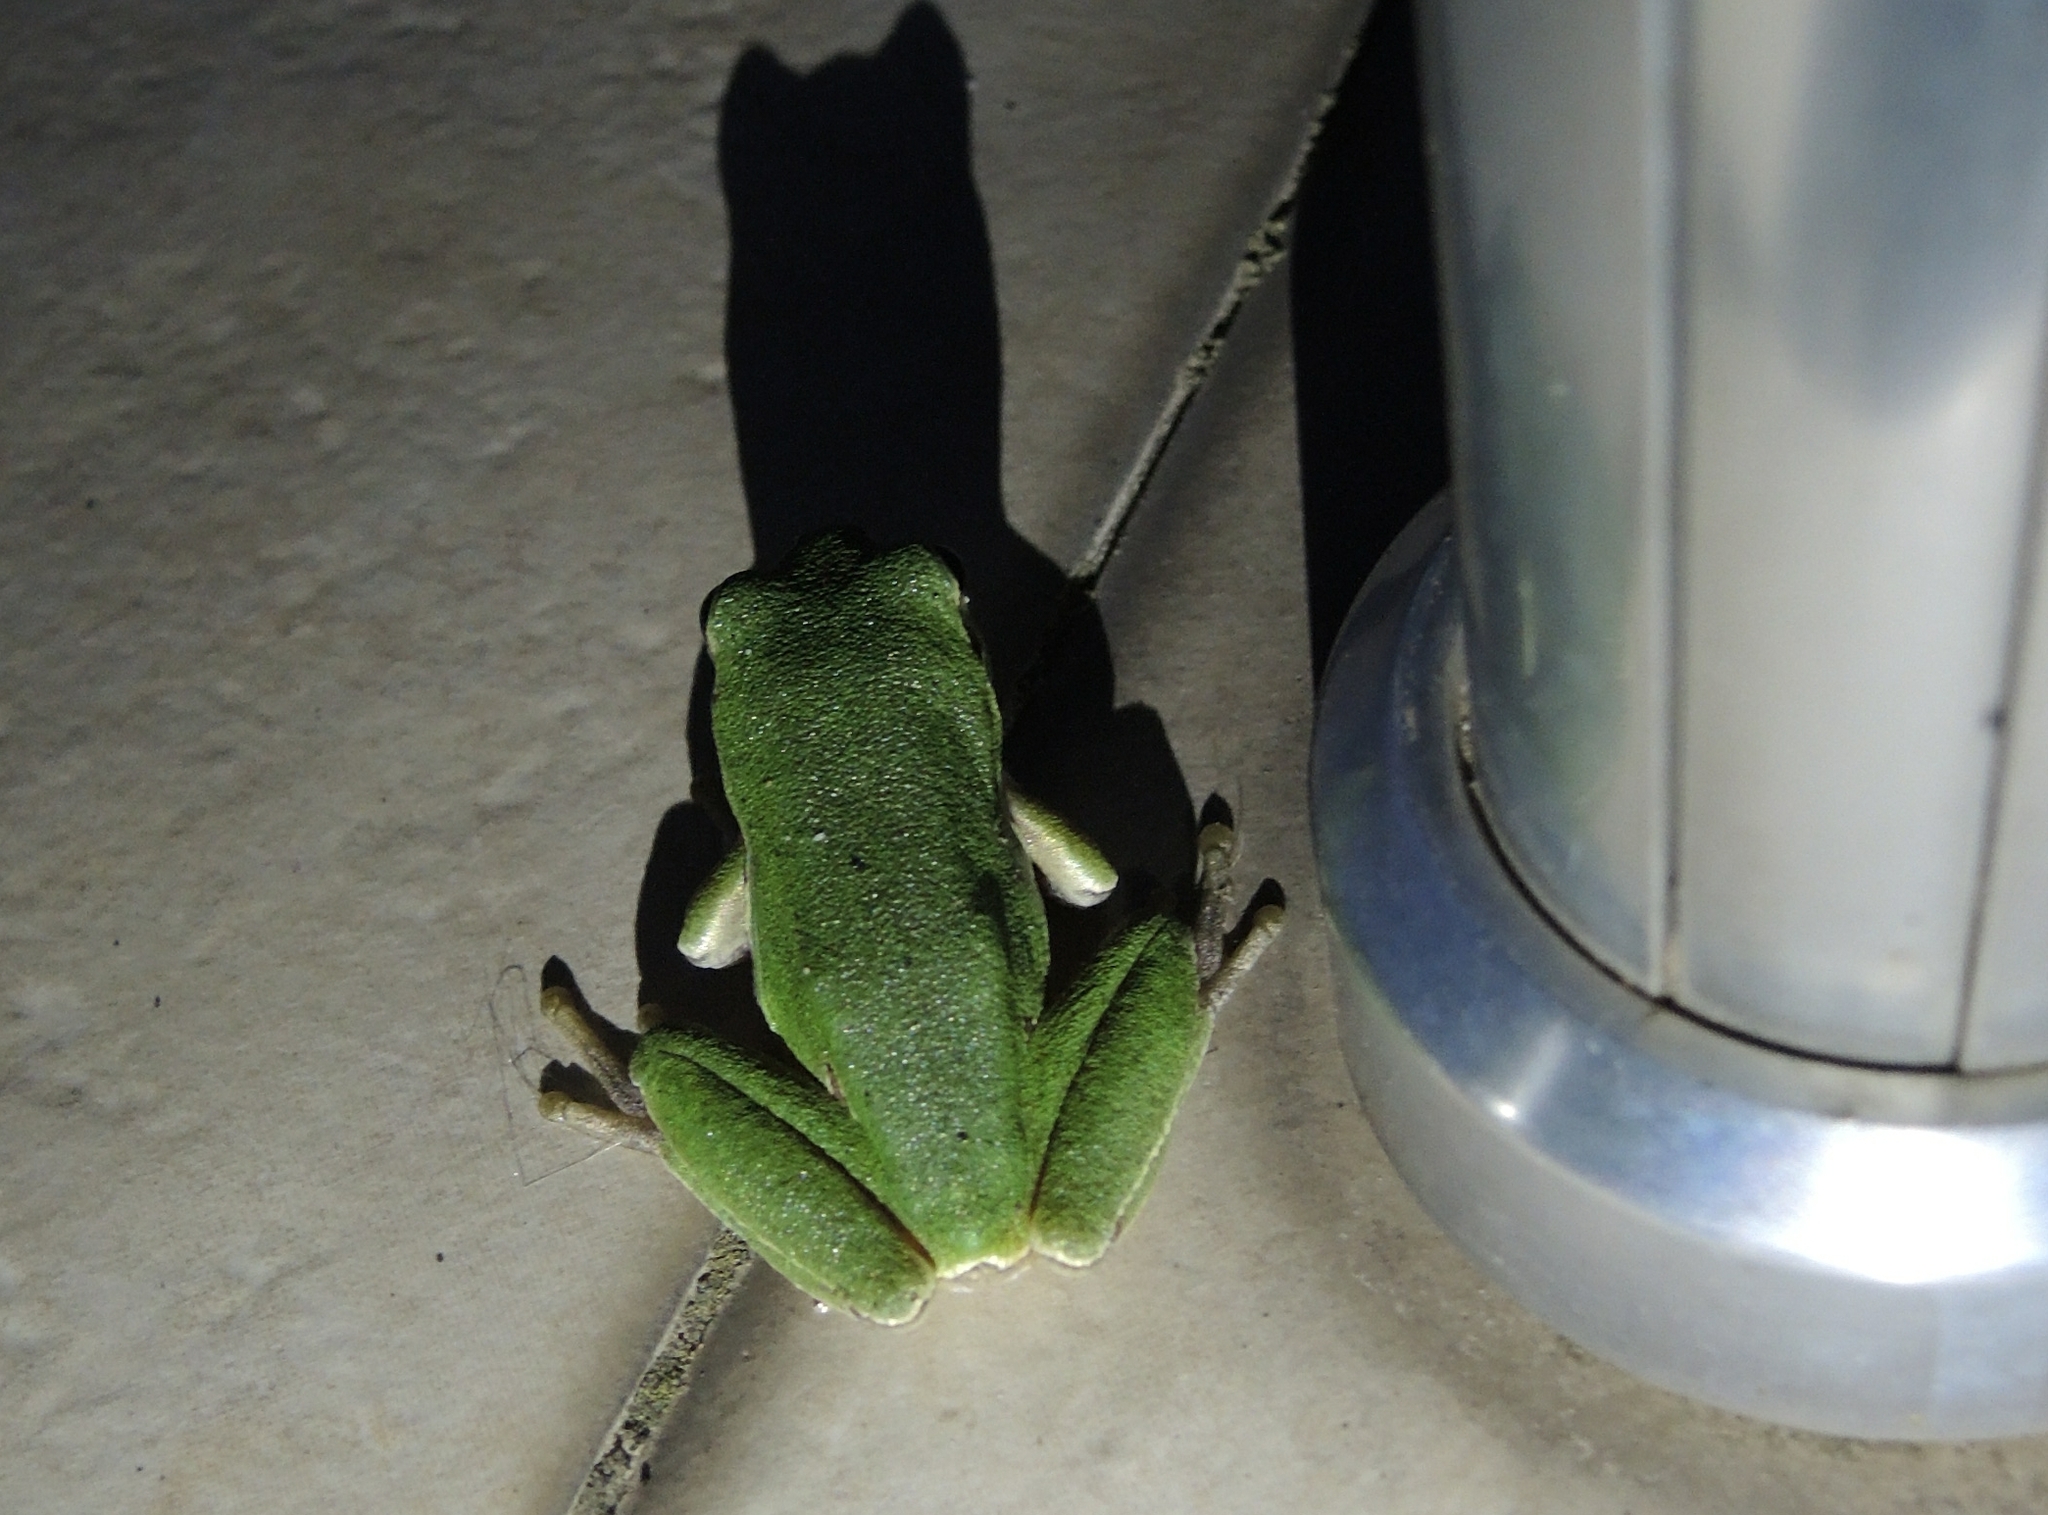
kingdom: Animalia
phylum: Chordata
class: Amphibia
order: Anura
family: Hylidae
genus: Hyla
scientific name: Hyla orientalis
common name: Caucasian treefrog
